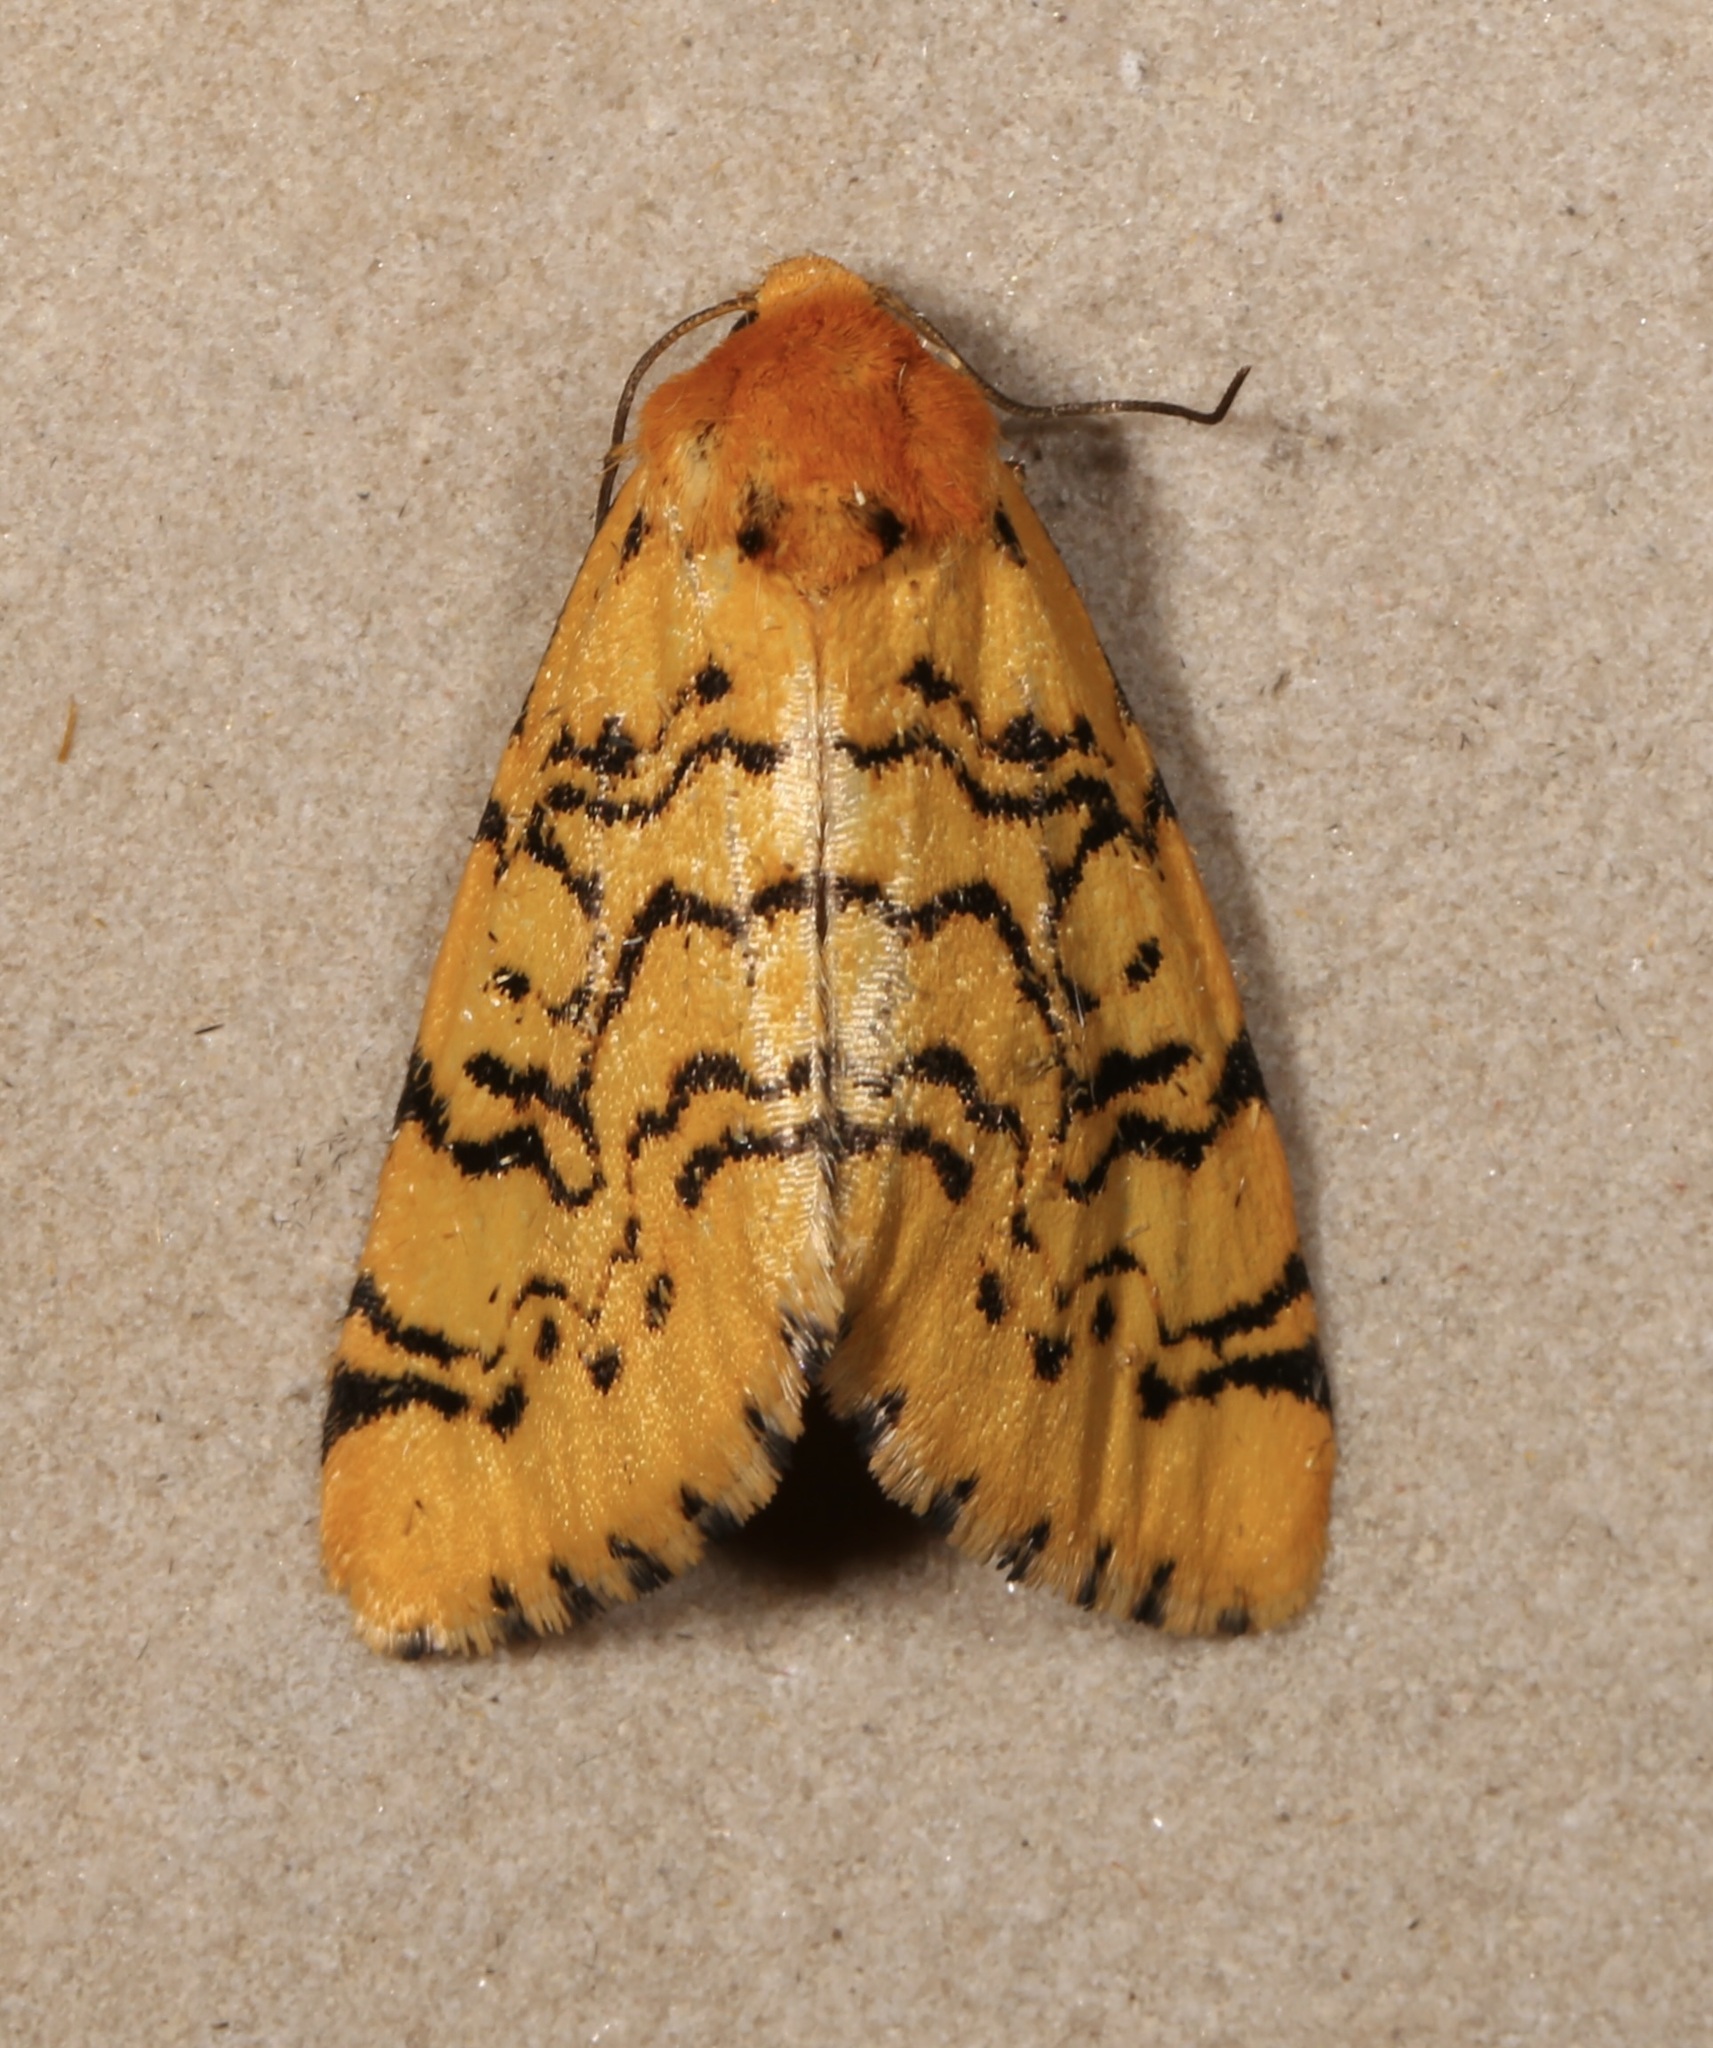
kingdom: Animalia
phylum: Arthropoda
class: Insecta
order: Lepidoptera
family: Noctuidae
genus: Chrysoecia
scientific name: Chrysoecia atrolinea
